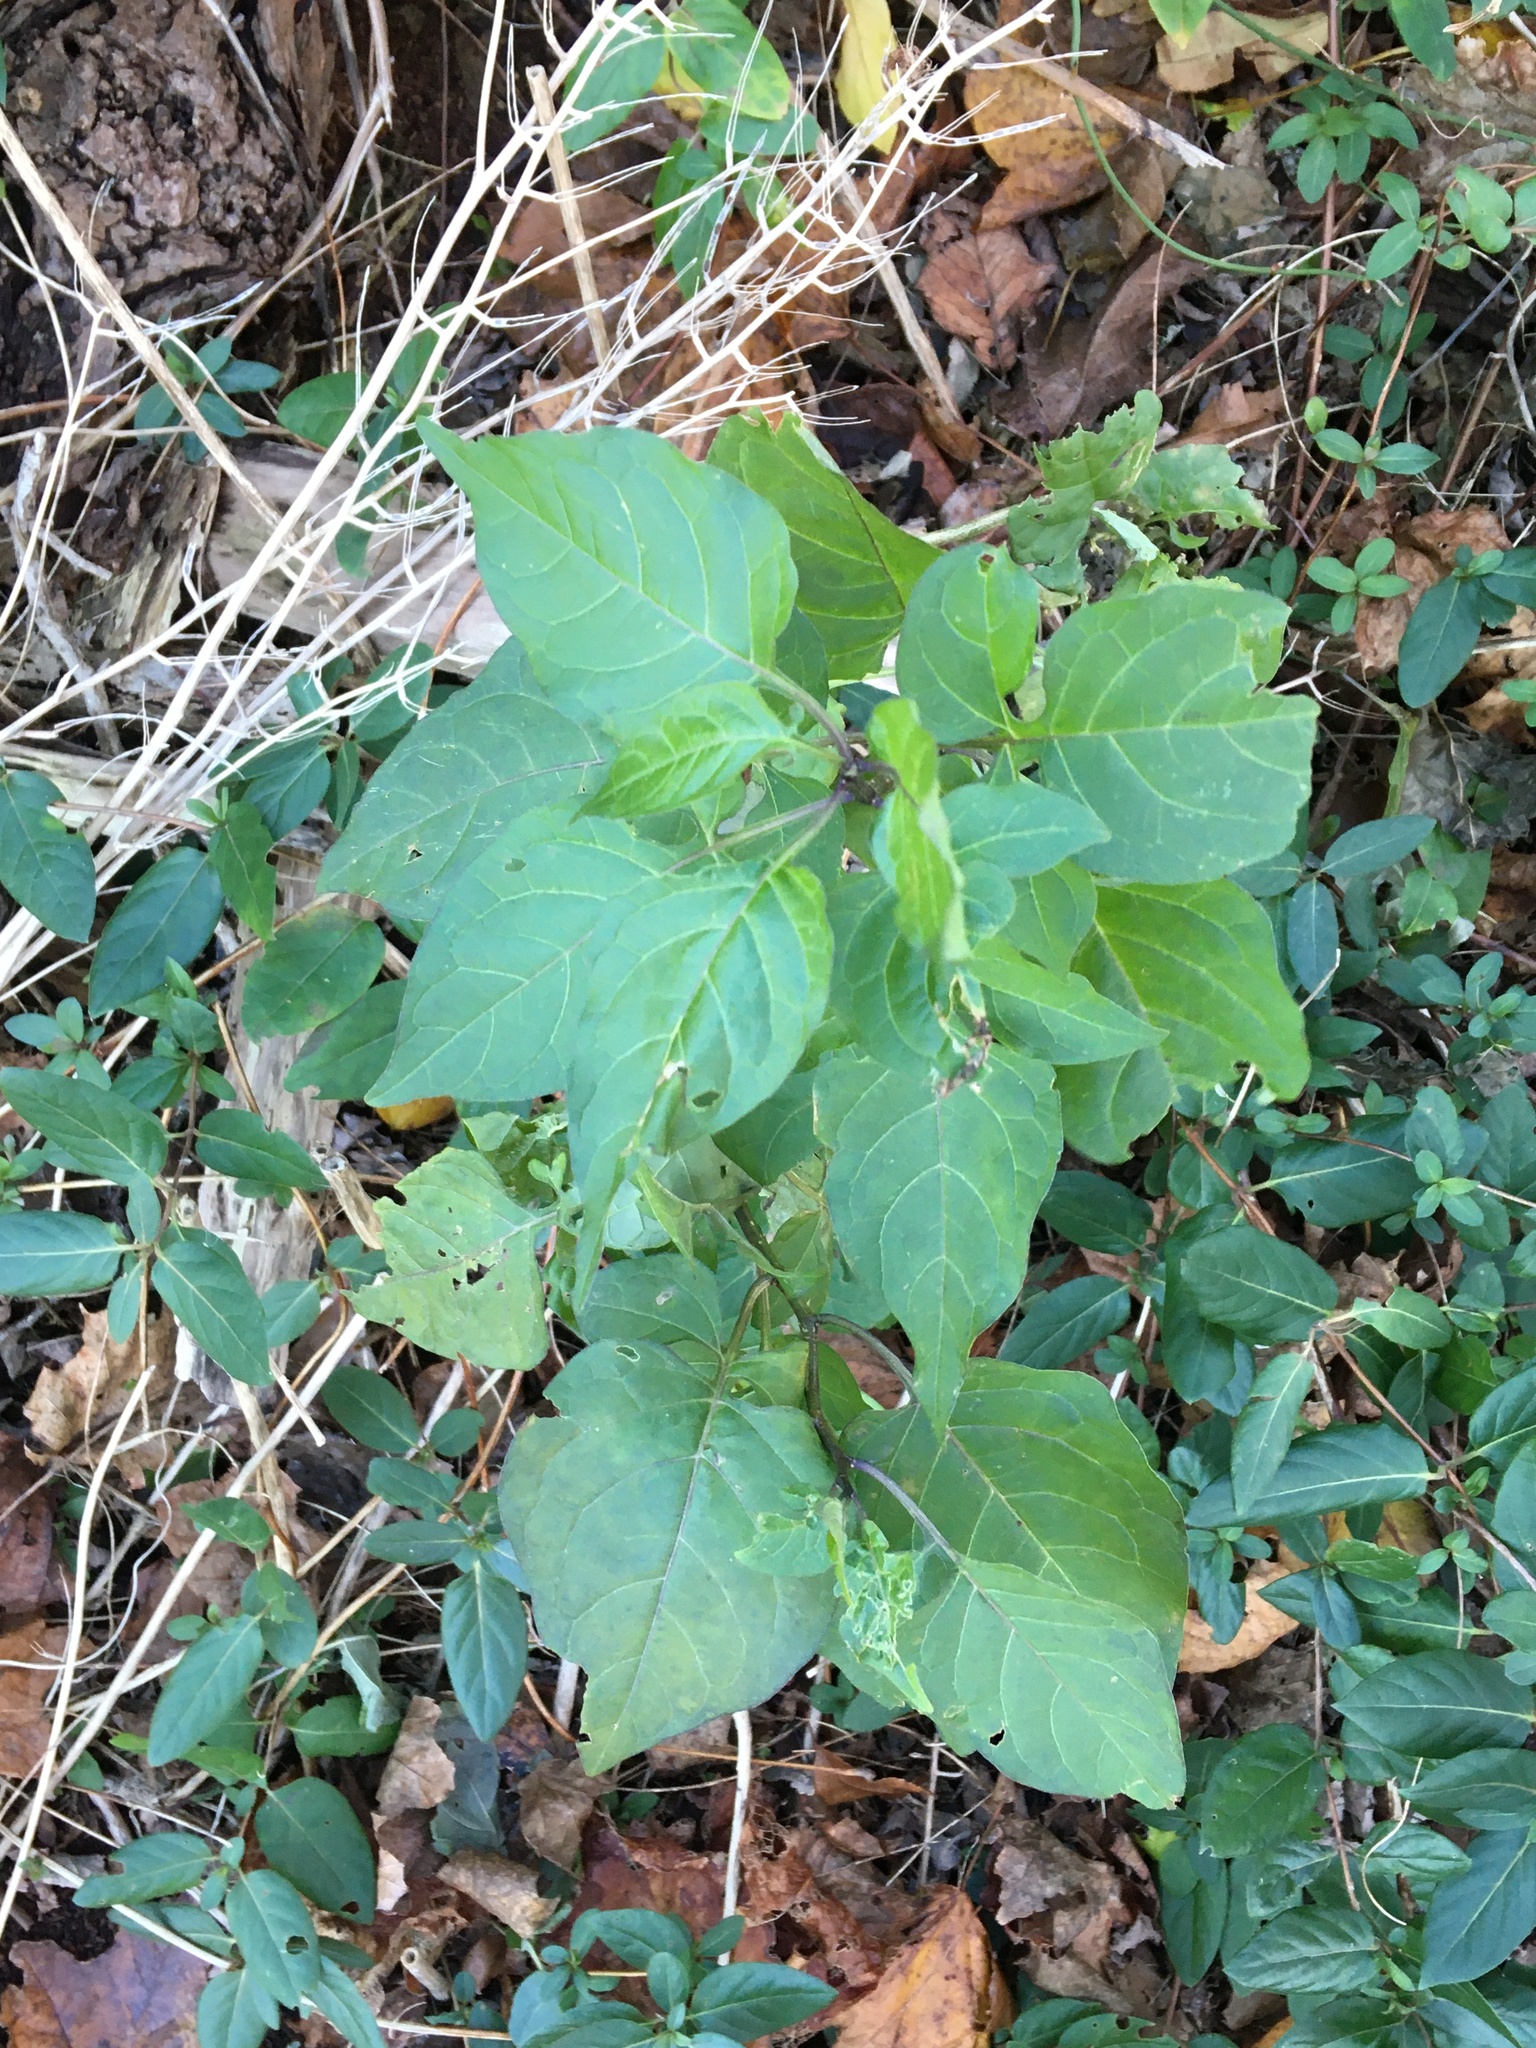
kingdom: Plantae
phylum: Tracheophyta
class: Magnoliopsida
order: Solanales
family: Solanaceae
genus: Solanum
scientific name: Solanum dulcamara
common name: Climbing nightshade
